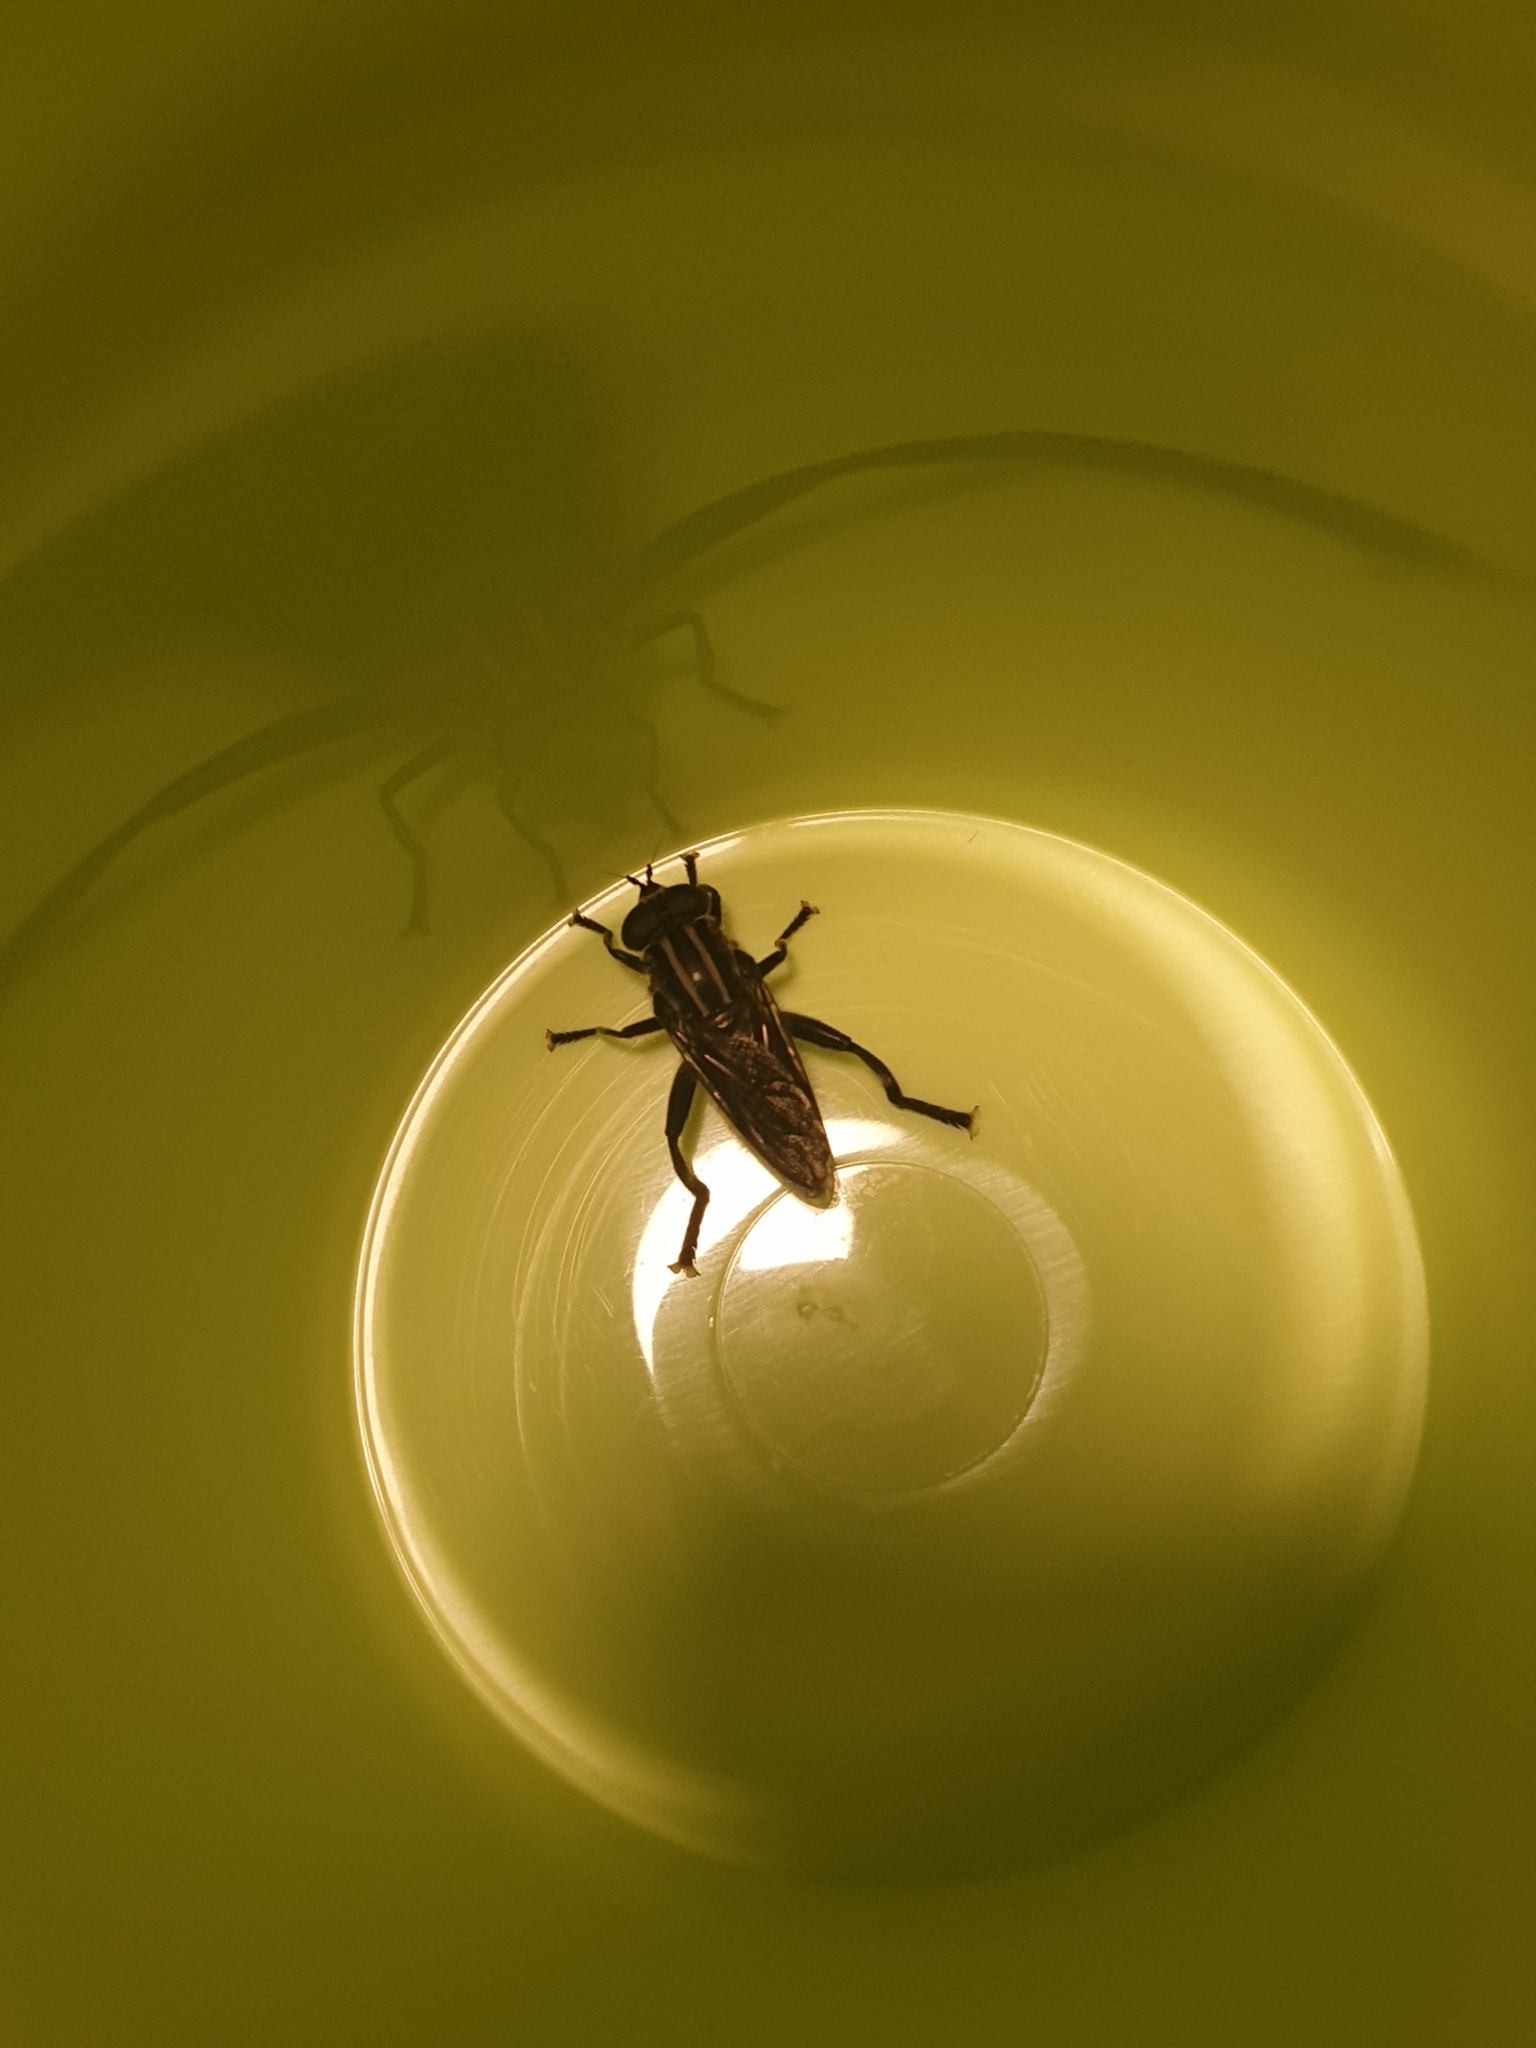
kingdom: Animalia
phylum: Arthropoda
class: Insecta
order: Diptera
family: Syrphidae
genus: Orthoprosopa
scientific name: Orthoprosopa bilineata
